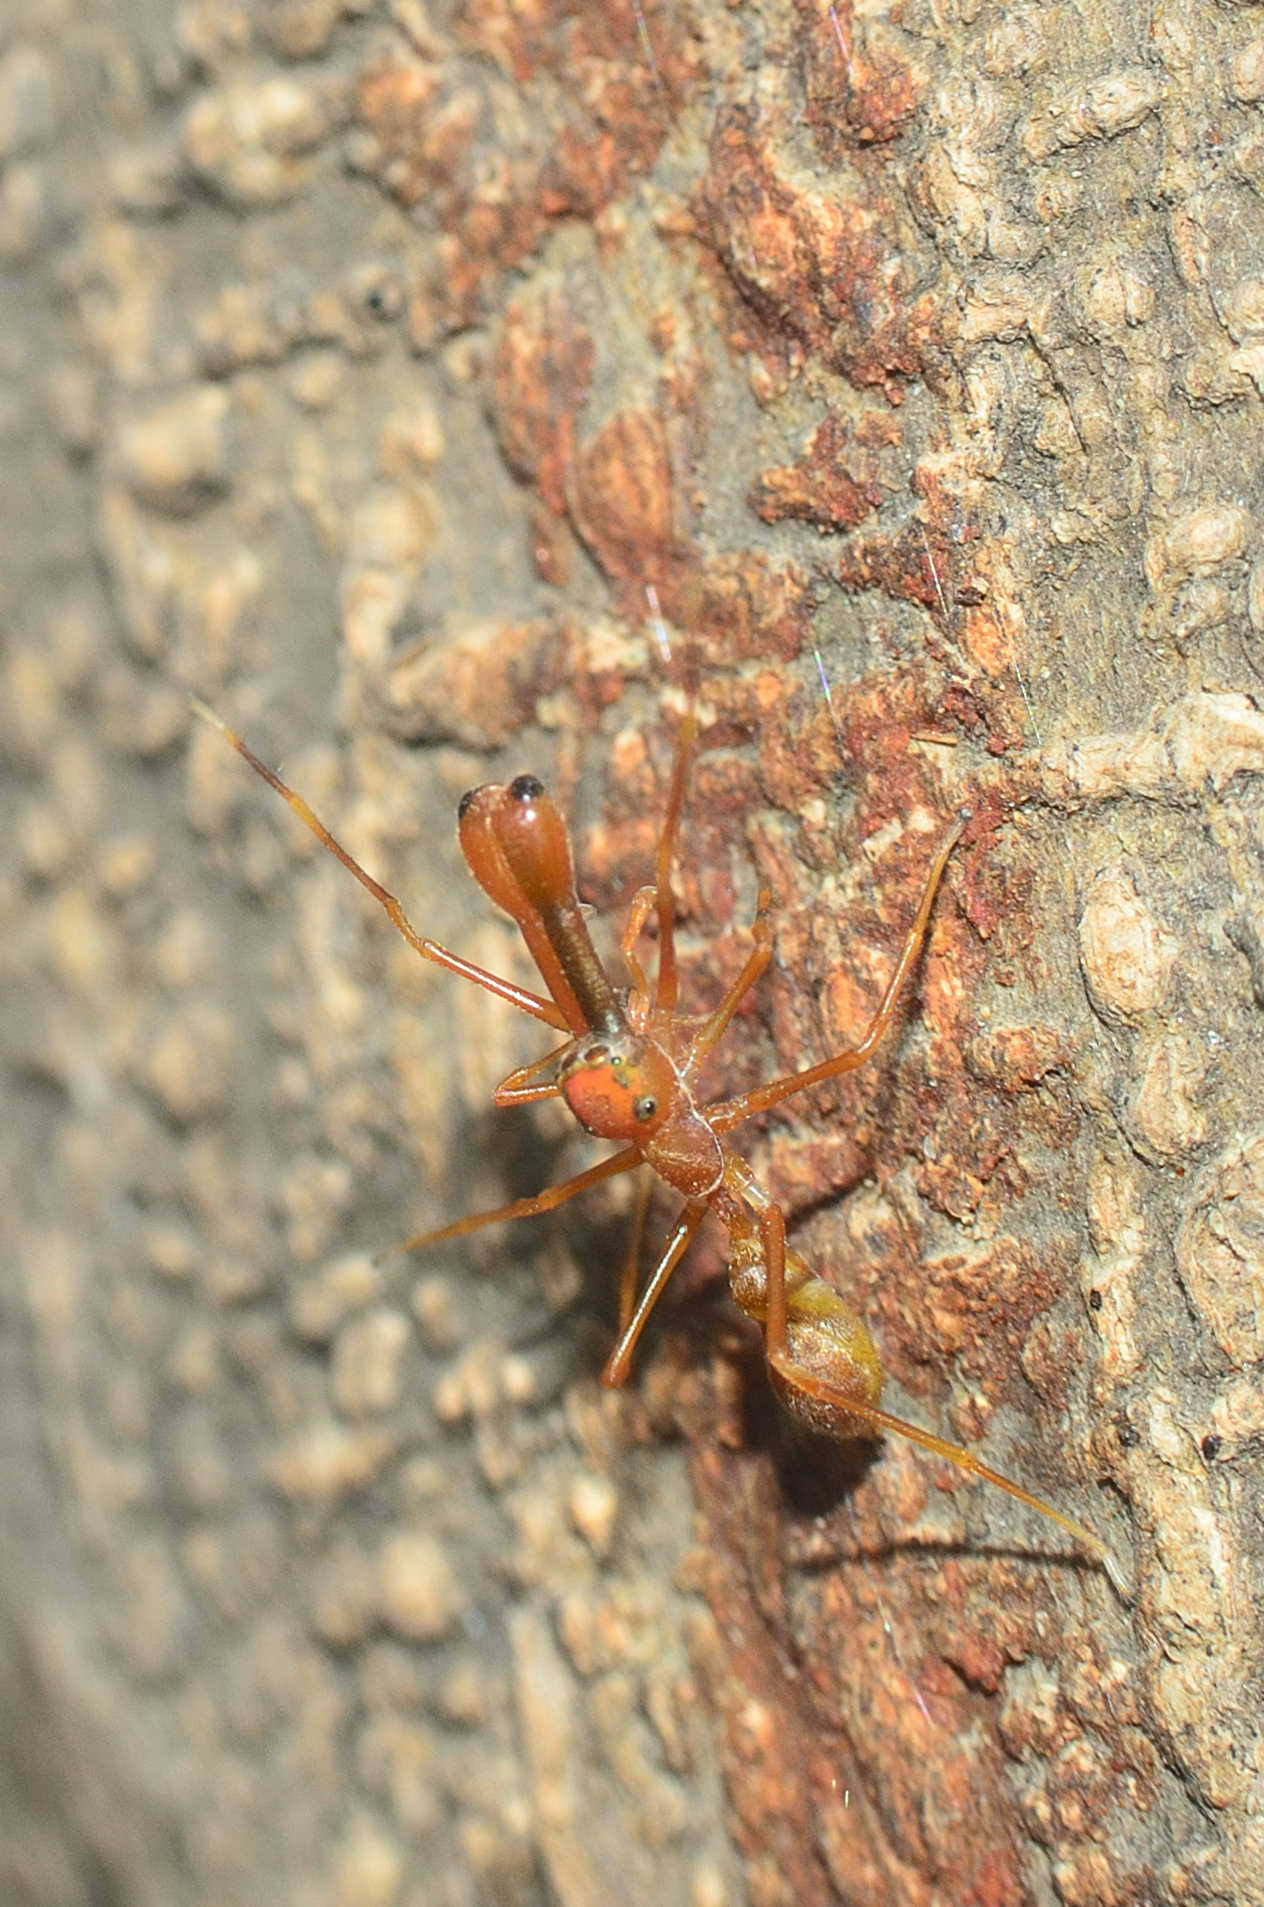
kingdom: Animalia
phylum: Arthropoda
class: Arachnida
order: Araneae
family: Salticidae
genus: Myrmaplata
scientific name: Myrmaplata plataleoides
